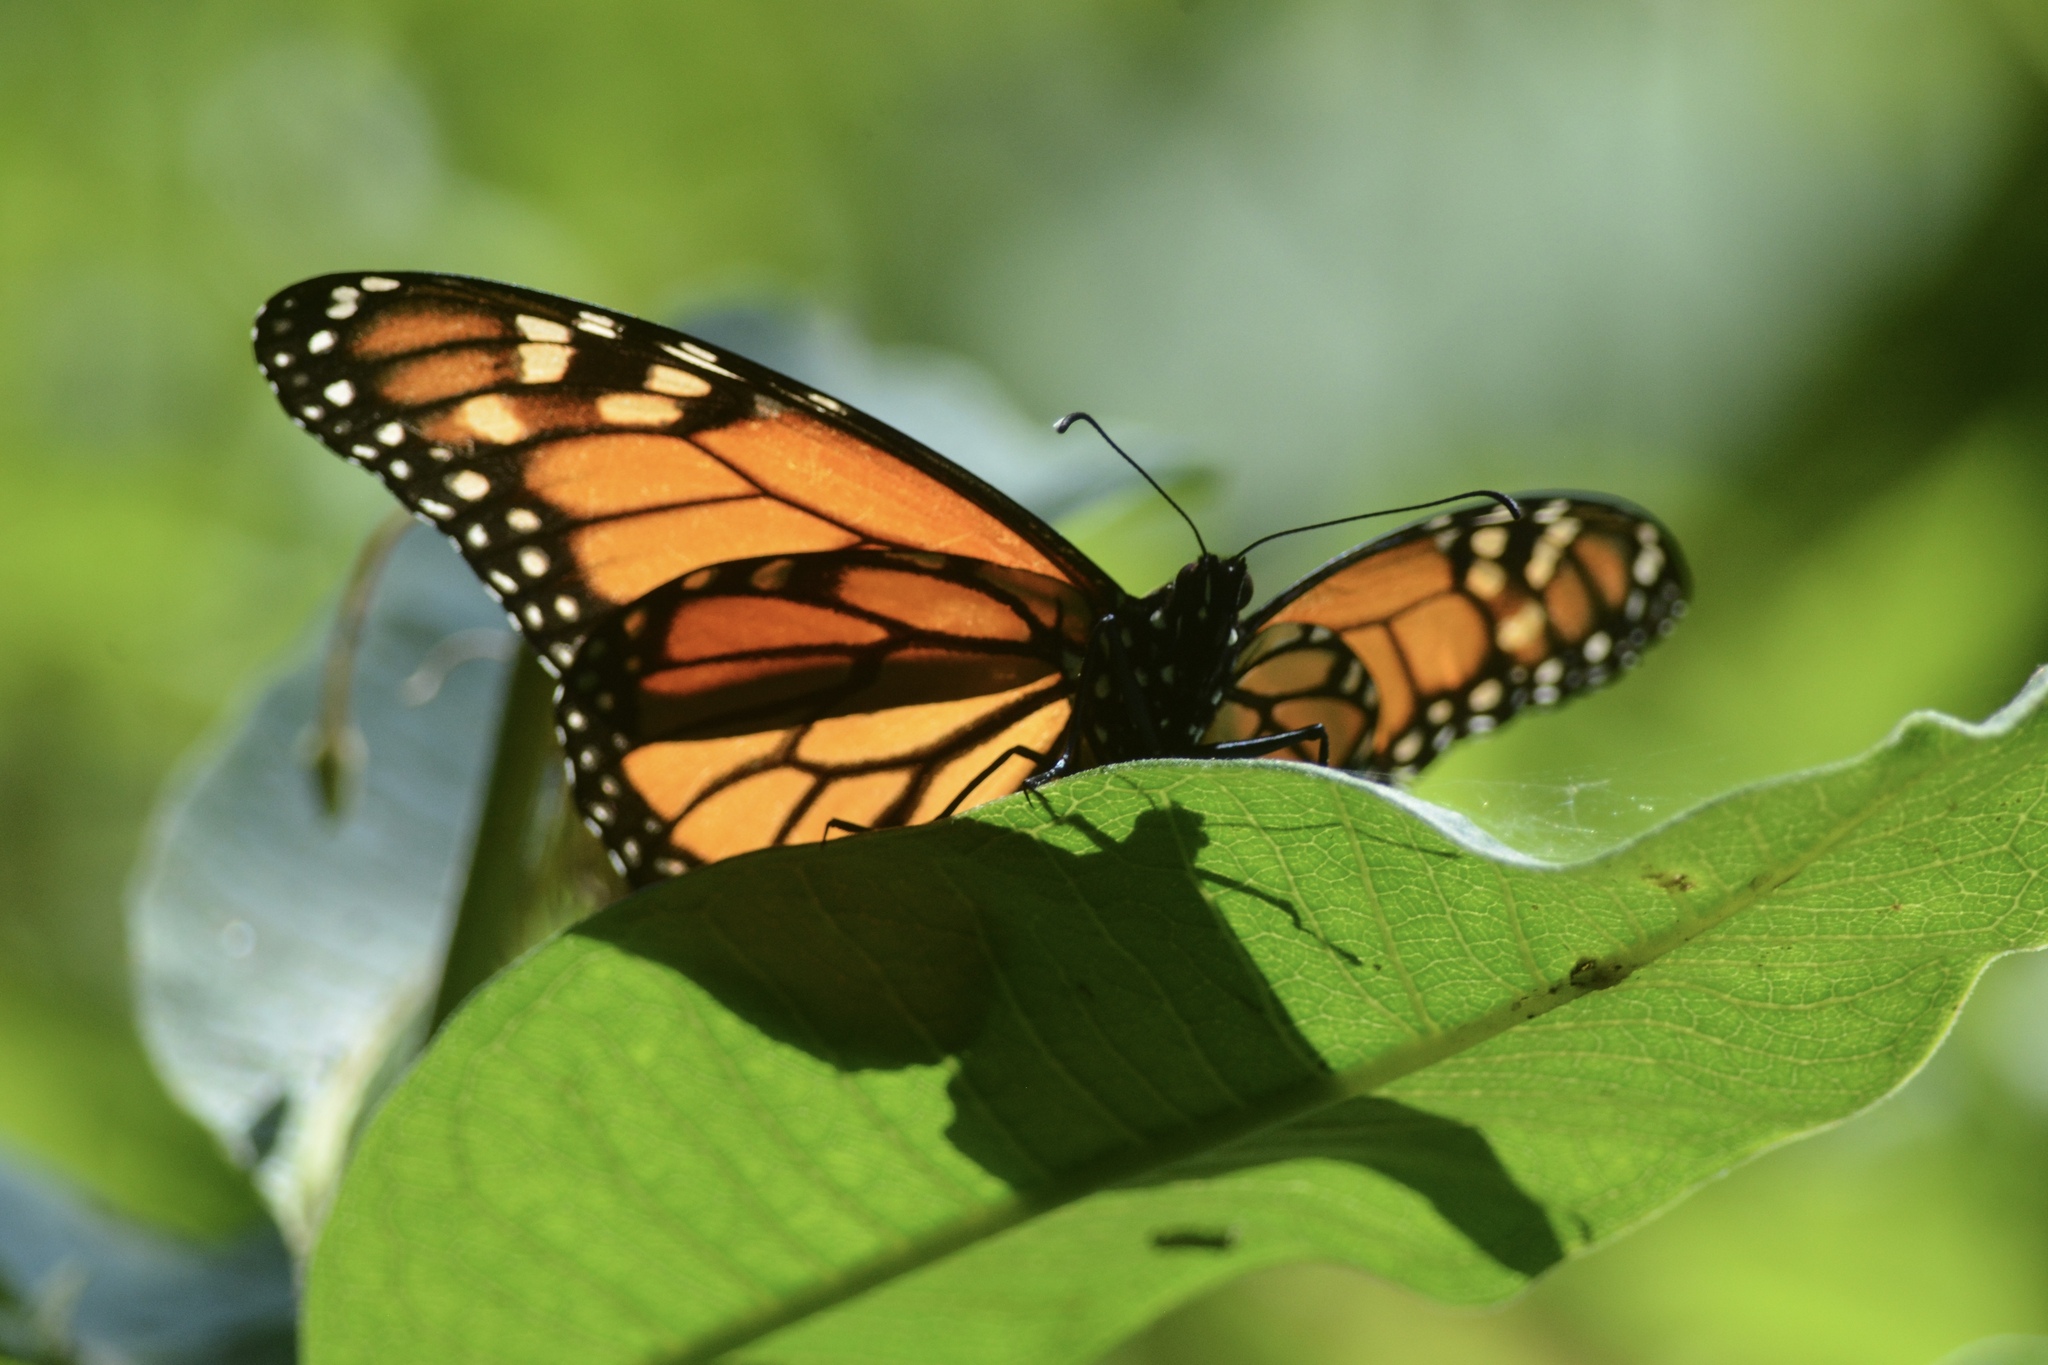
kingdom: Animalia
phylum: Arthropoda
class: Insecta
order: Lepidoptera
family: Nymphalidae
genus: Danaus
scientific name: Danaus plexippus
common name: Monarch
